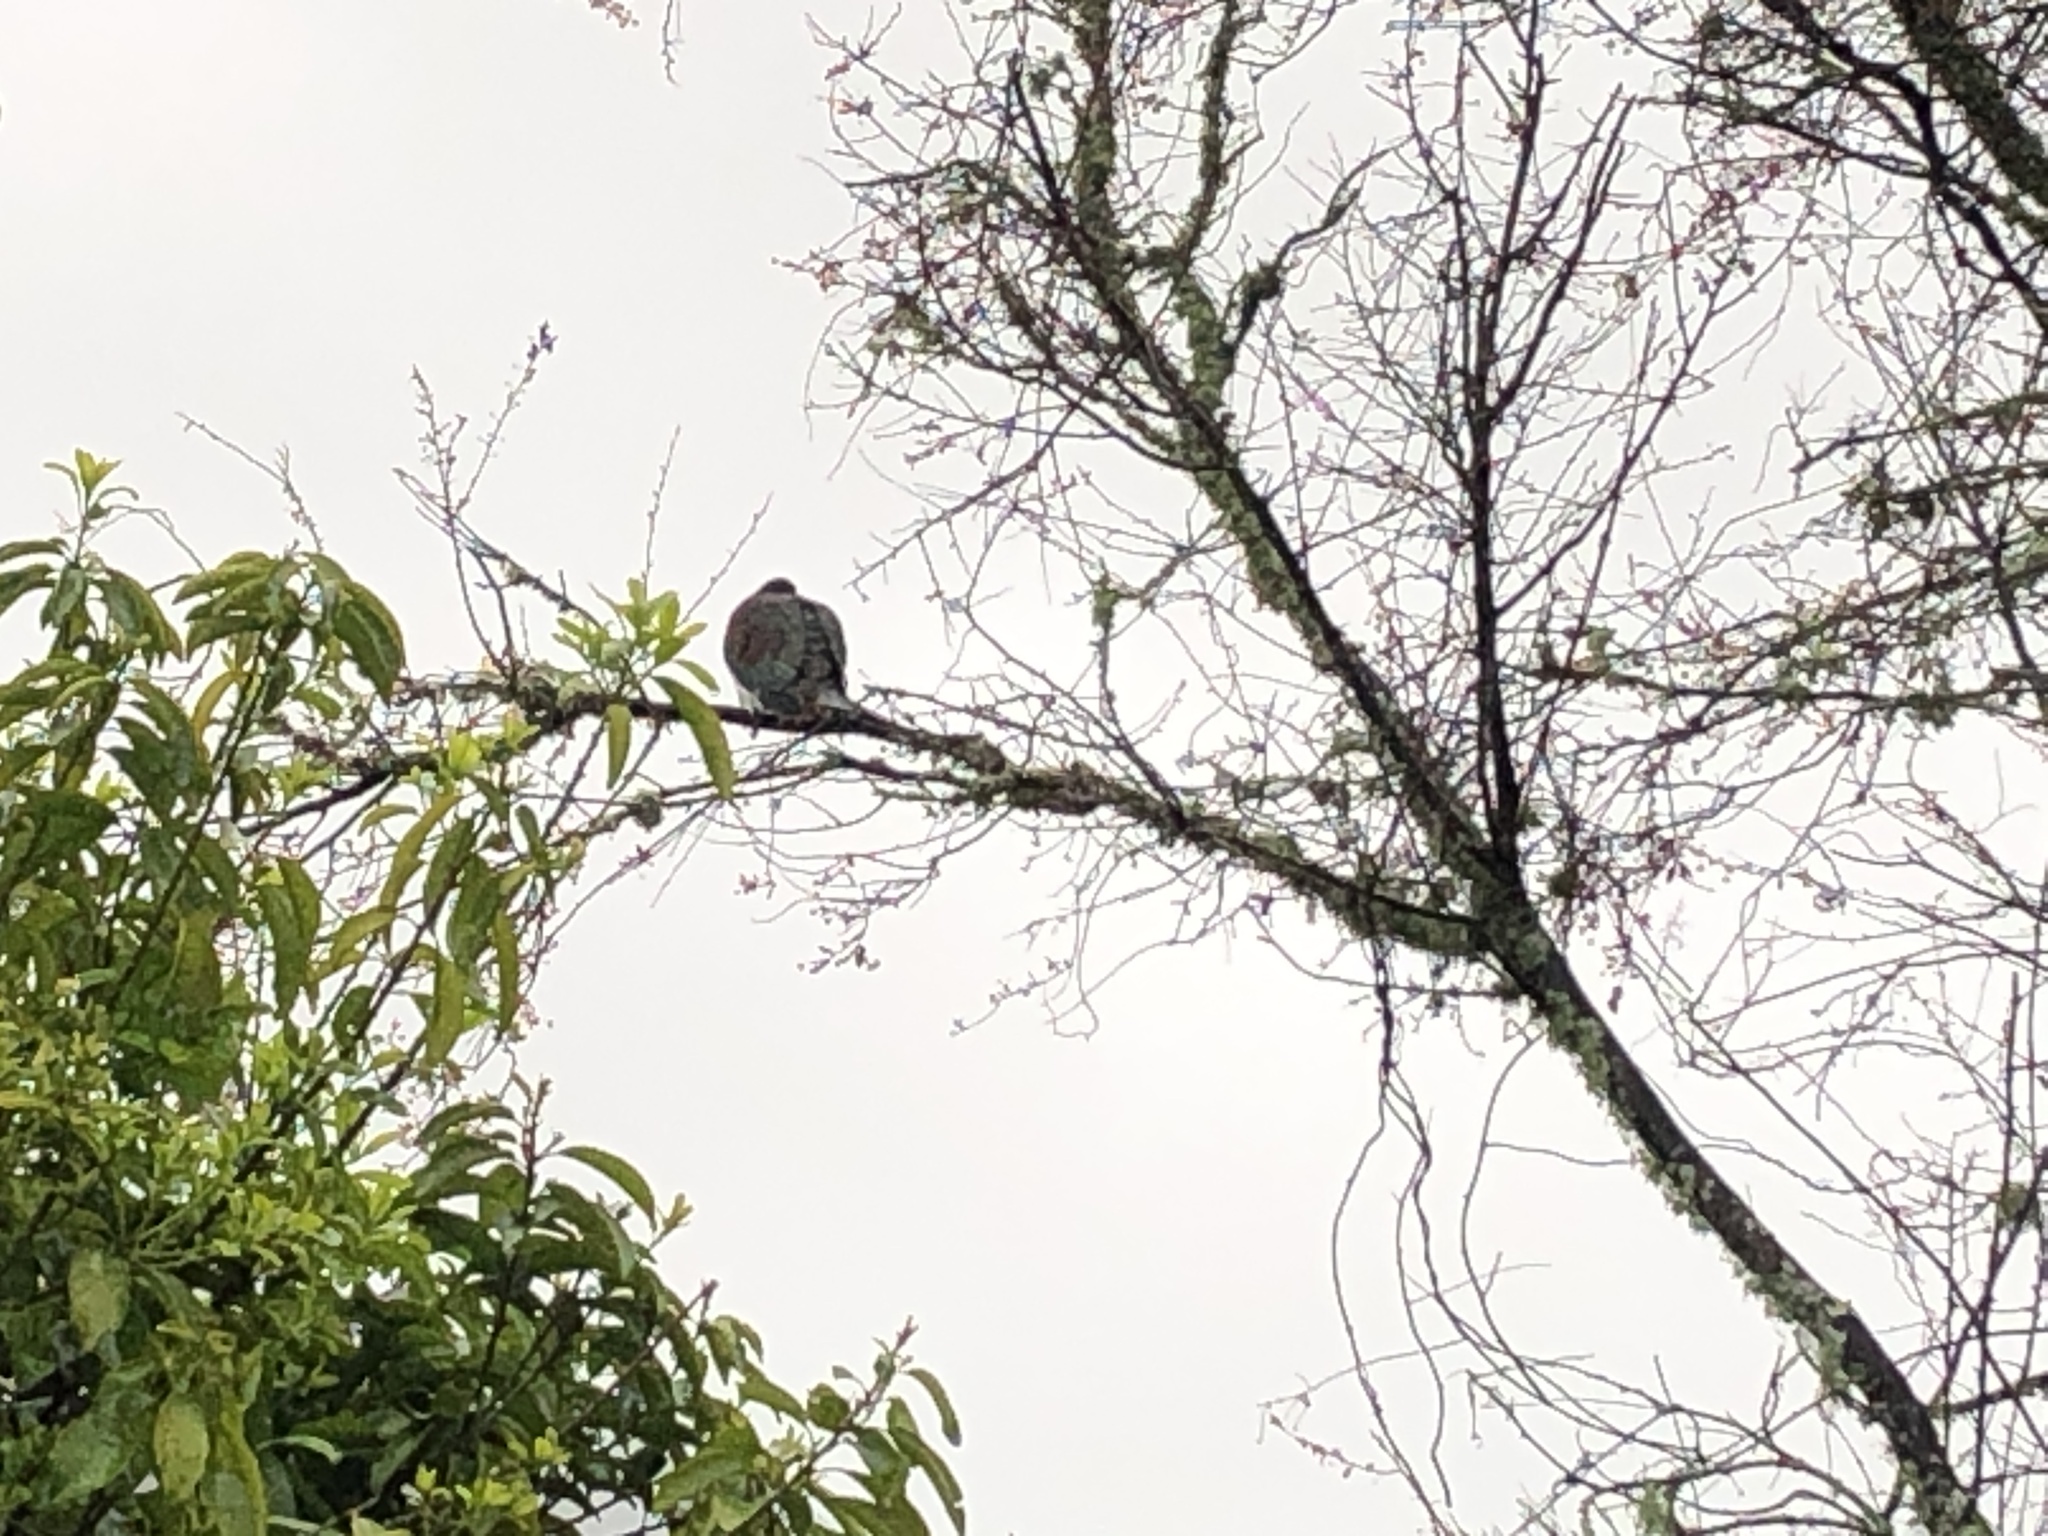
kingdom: Animalia
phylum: Chordata
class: Aves
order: Columbiformes
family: Columbidae
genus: Hemiphaga
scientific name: Hemiphaga novaeseelandiae
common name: New zealand pigeon
